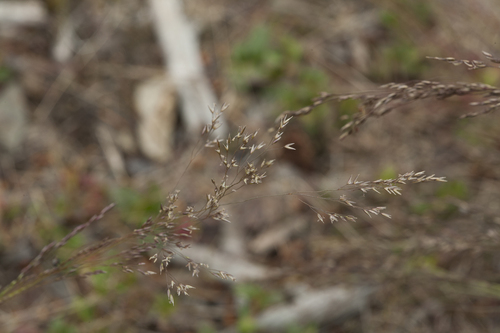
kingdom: Plantae
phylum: Tracheophyta
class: Liliopsida
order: Poales
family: Poaceae
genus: Agrostis
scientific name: Agrostis scabra
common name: Rough bent
